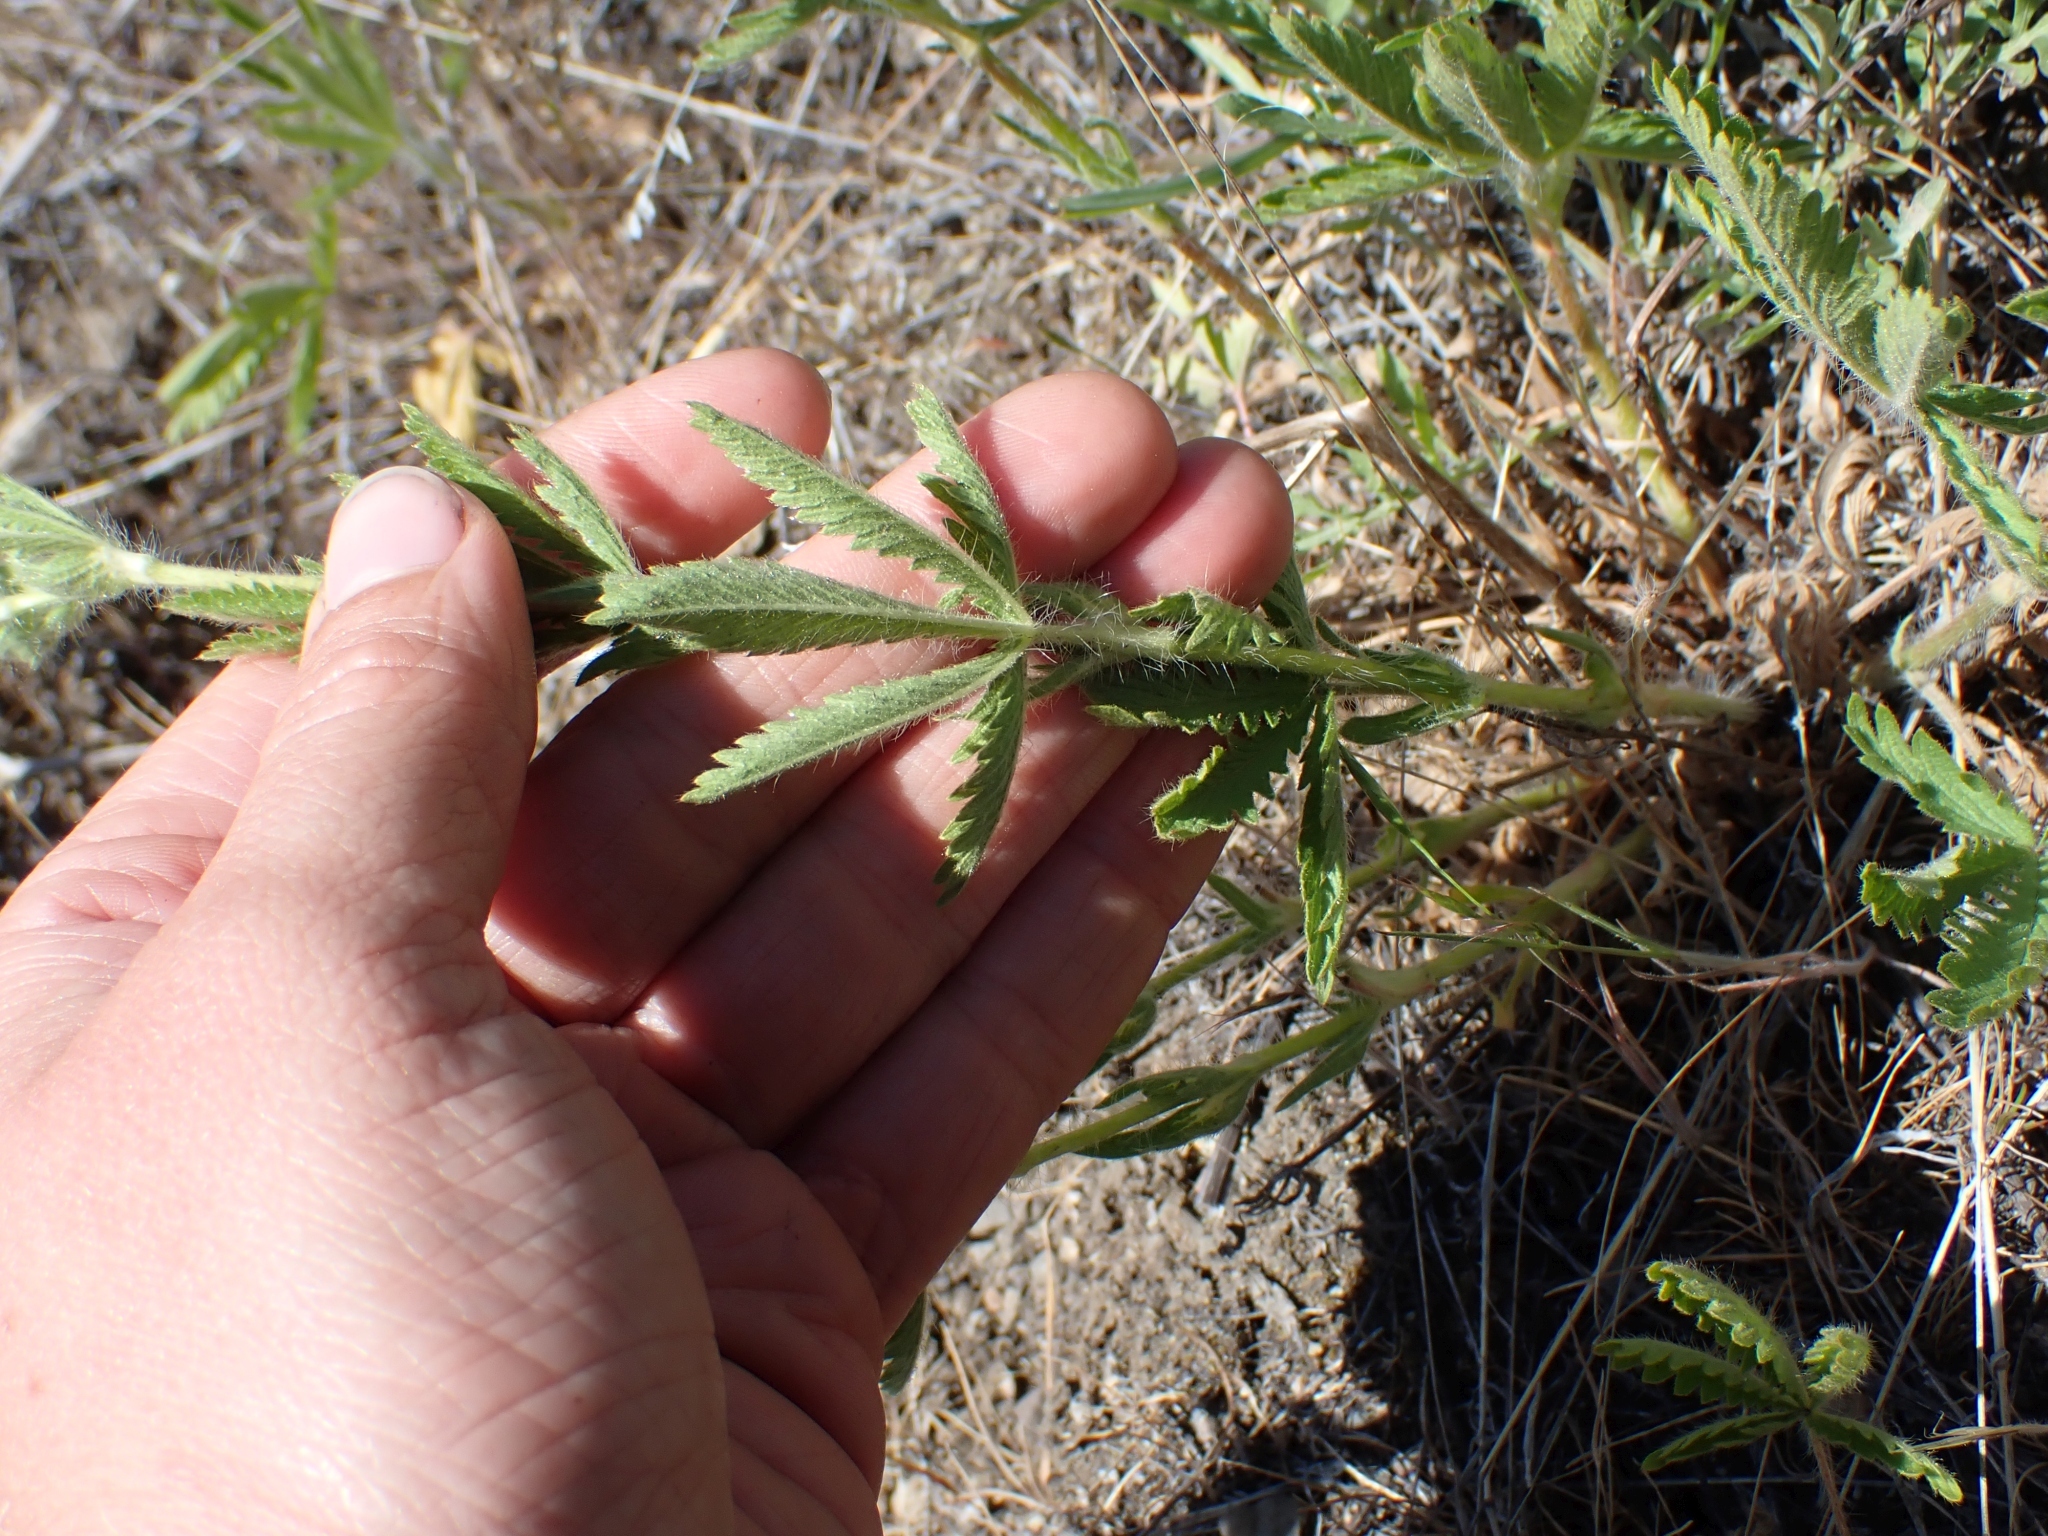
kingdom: Plantae
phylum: Tracheophyta
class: Magnoliopsida
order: Rosales
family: Rosaceae
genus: Potentilla
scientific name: Potentilla recta
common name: Sulphur cinquefoil
